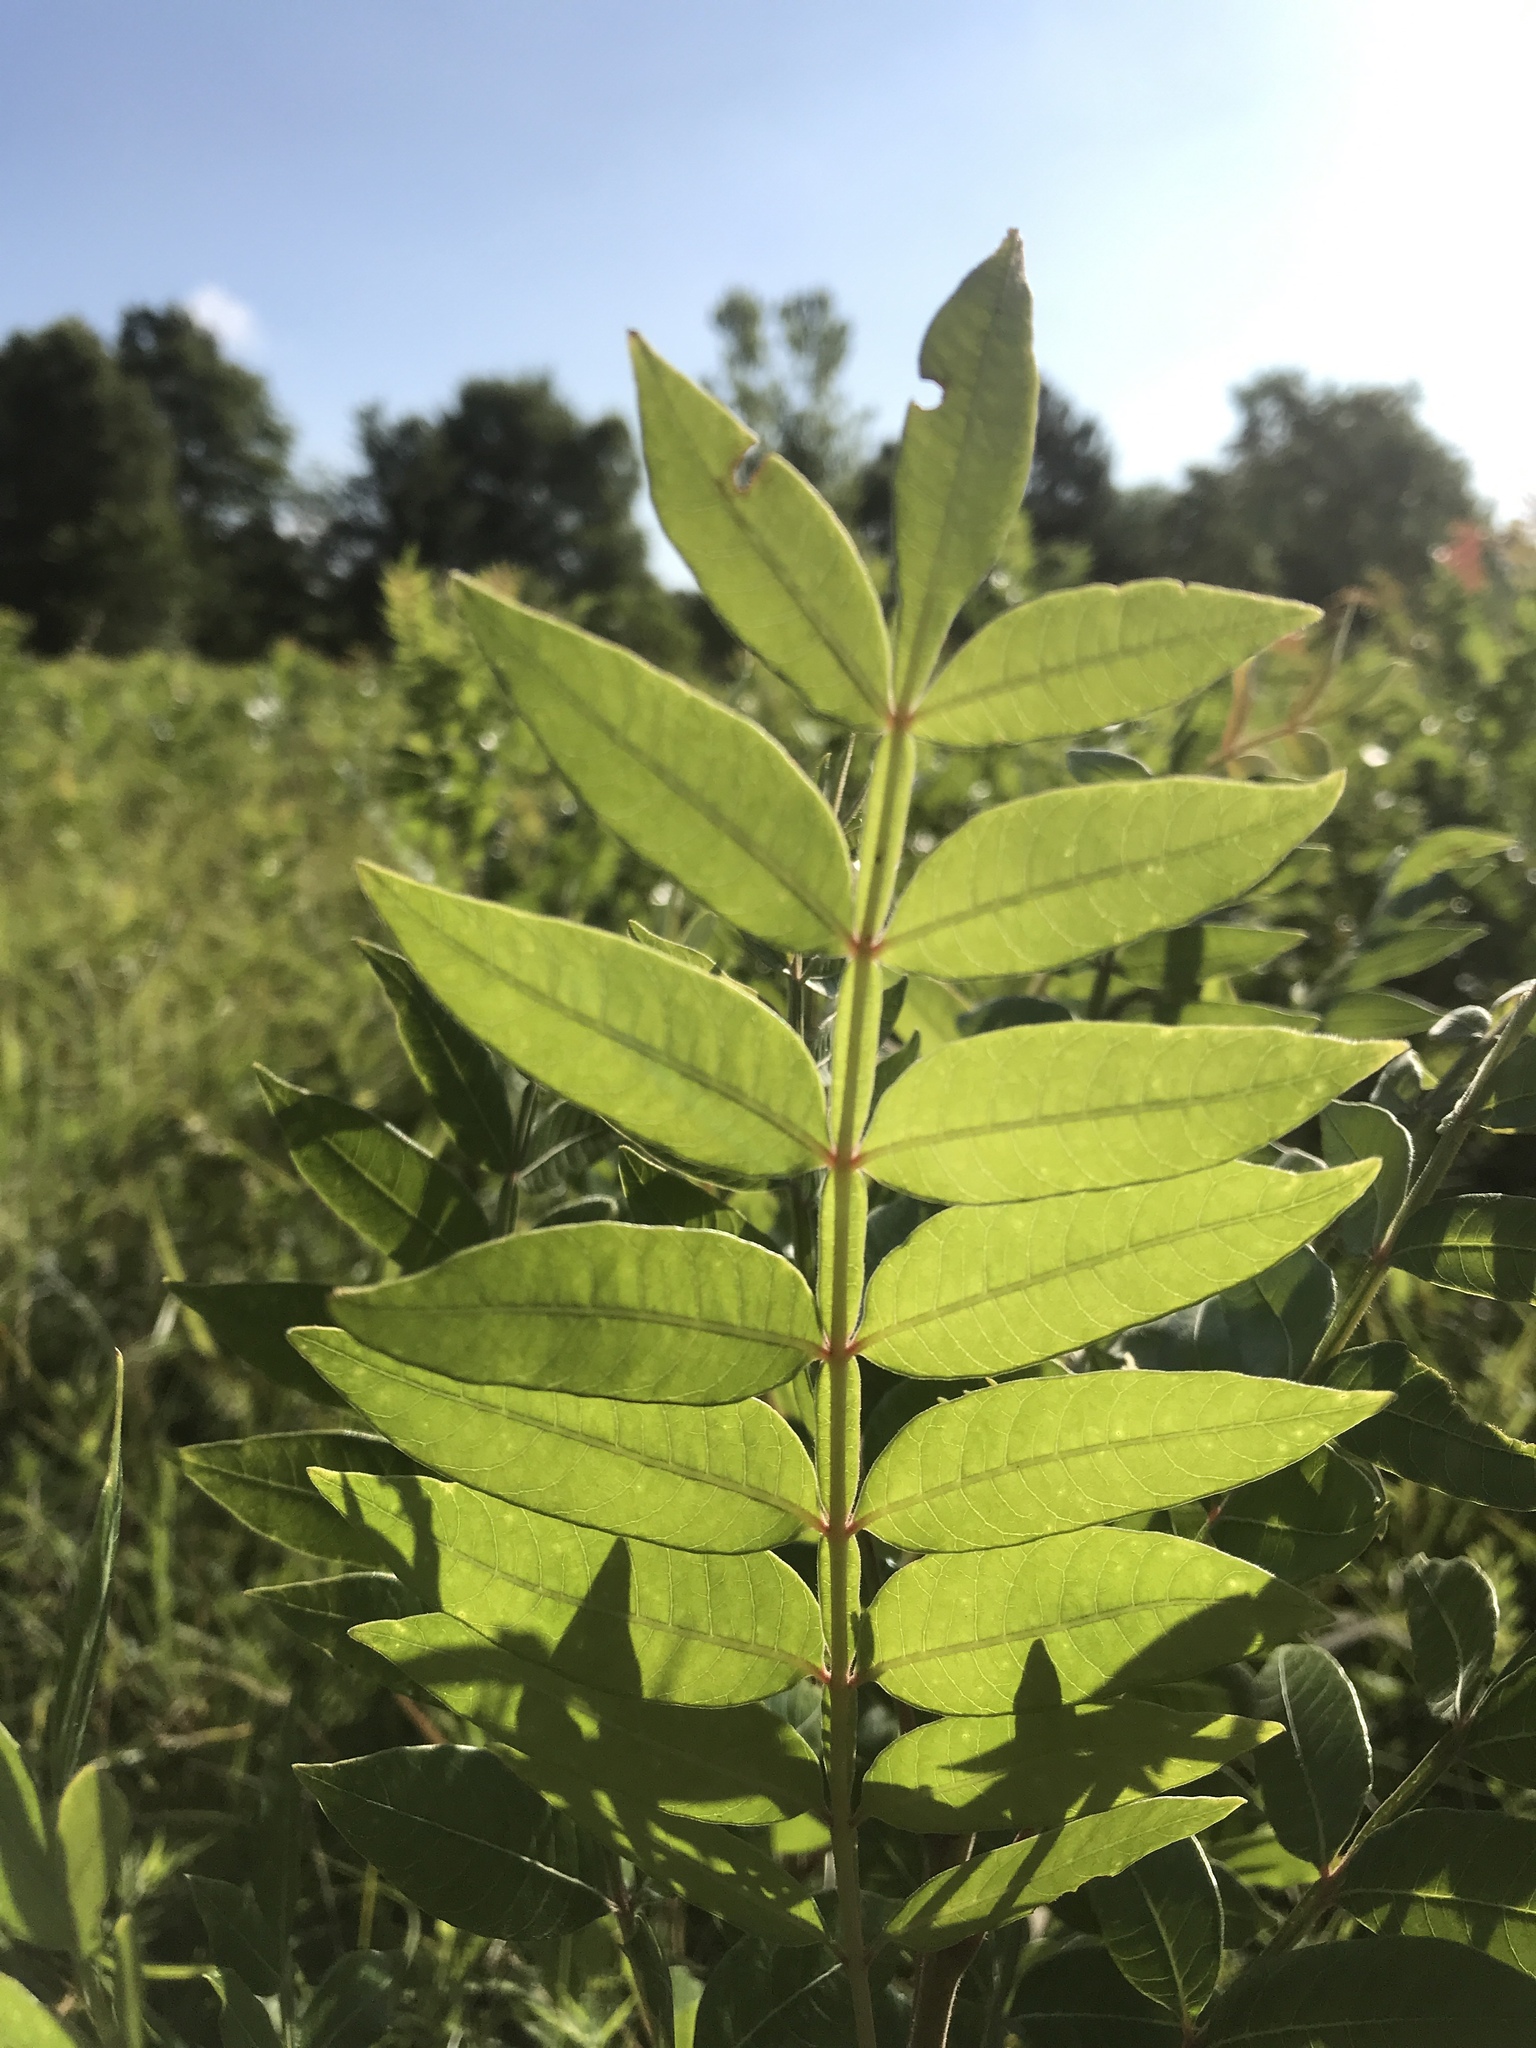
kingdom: Plantae
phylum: Tracheophyta
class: Magnoliopsida
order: Sapindales
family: Anacardiaceae
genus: Rhus
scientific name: Rhus copallina
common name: Shining sumac
